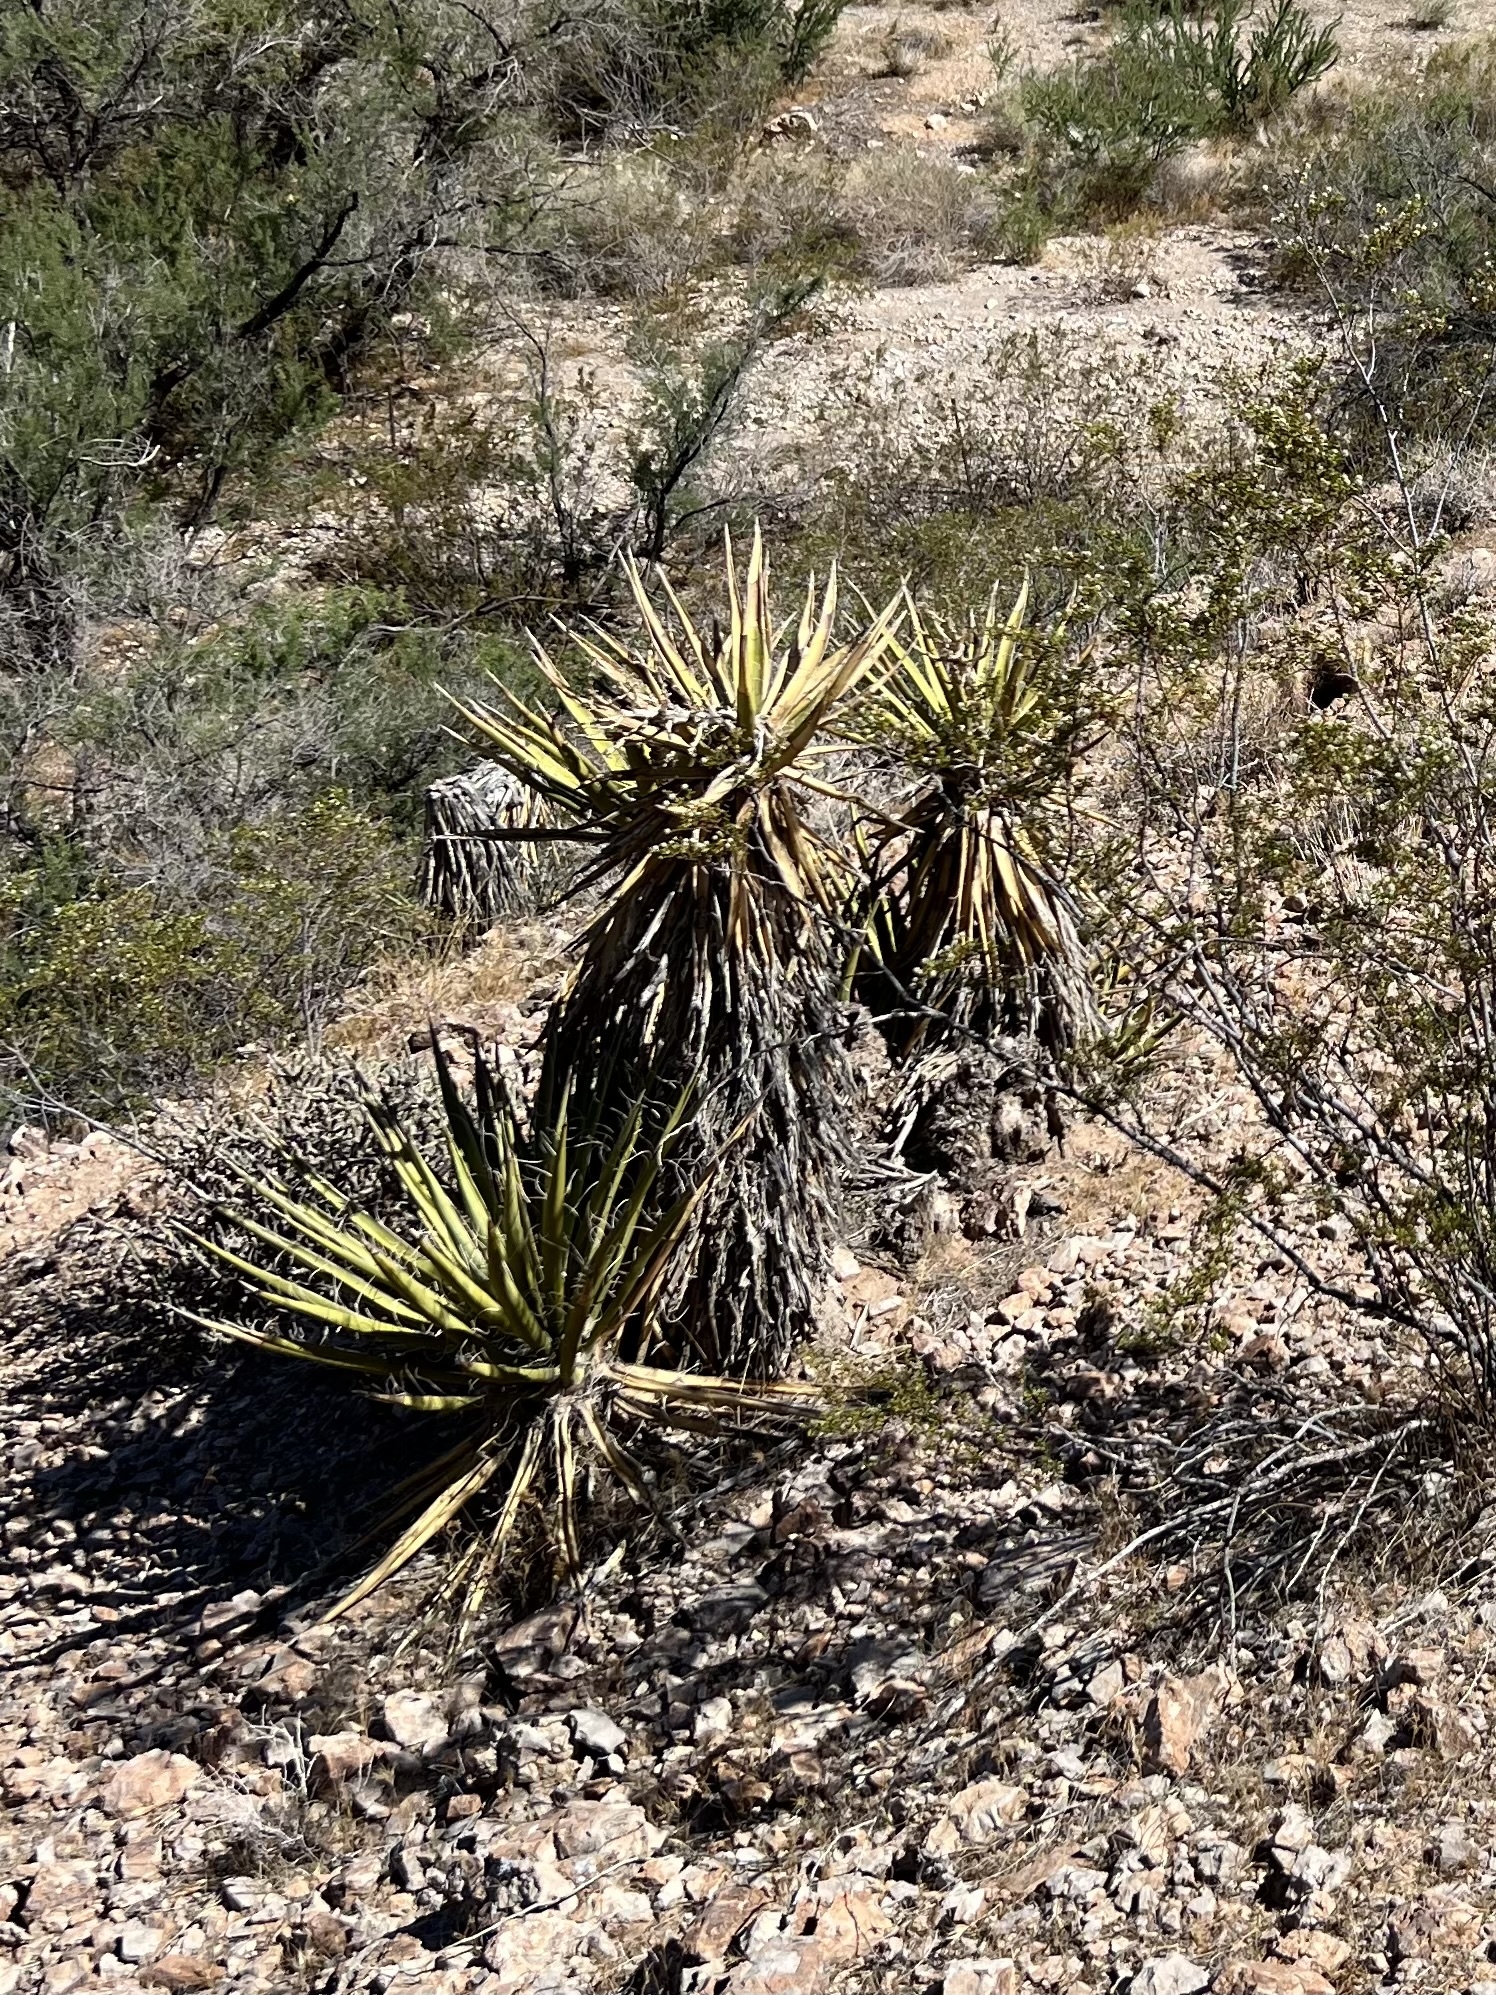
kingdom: Plantae
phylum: Tracheophyta
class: Liliopsida
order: Asparagales
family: Asparagaceae
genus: Yucca
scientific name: Yucca schidigera
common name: Mojave yucca
